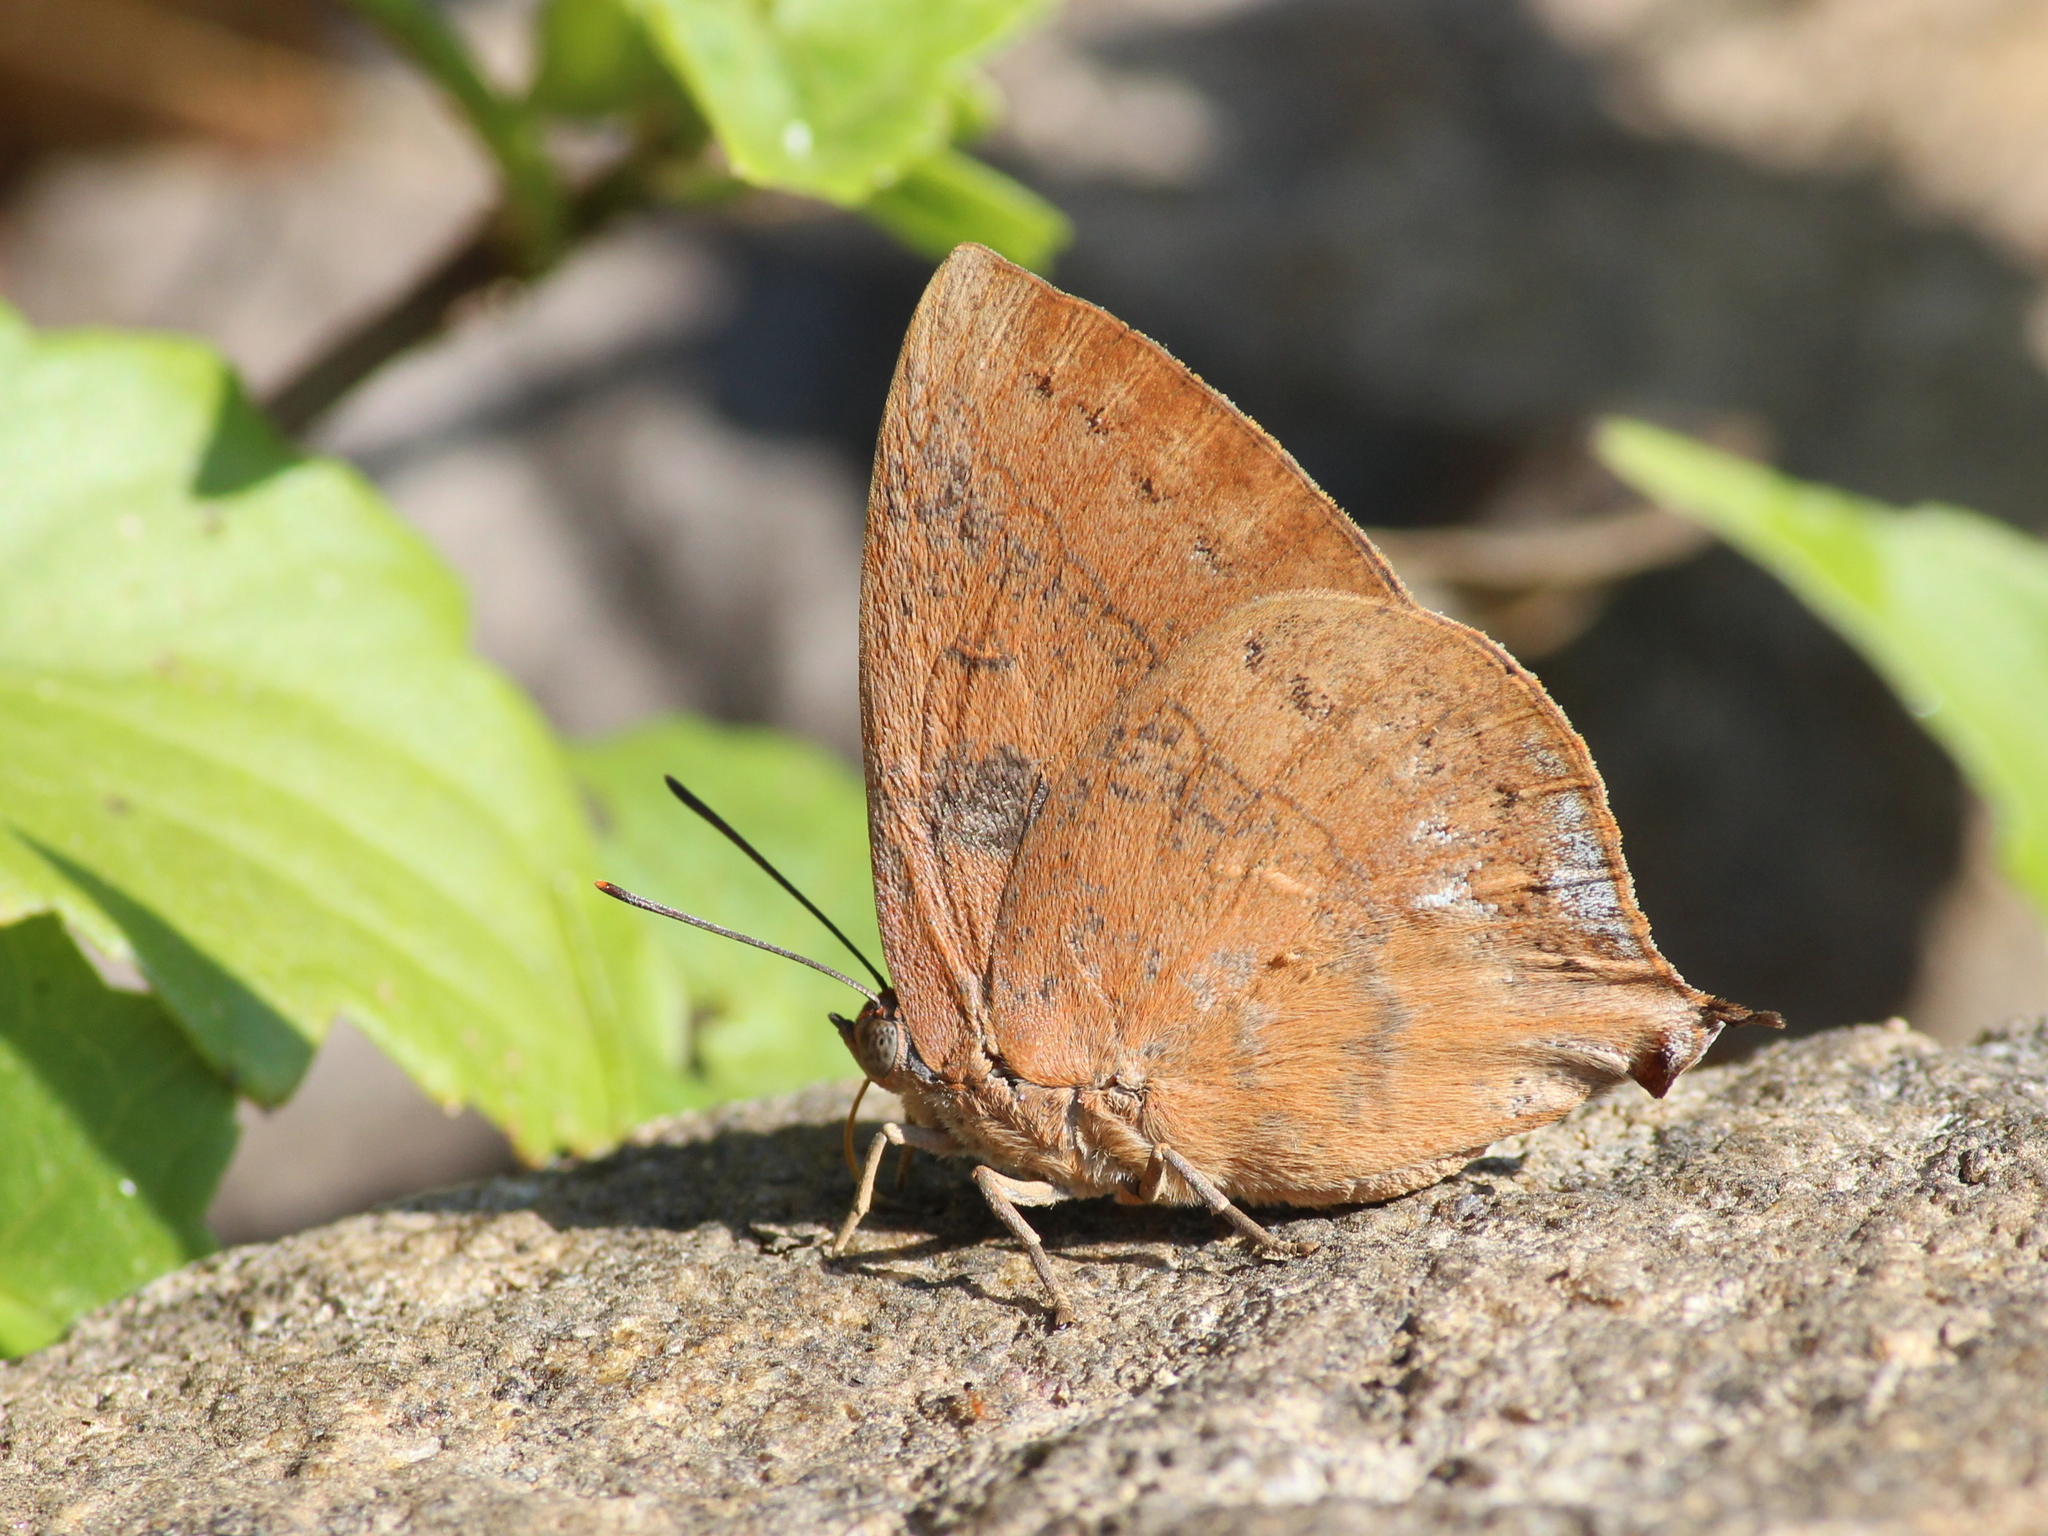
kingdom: Animalia
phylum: Arthropoda
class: Insecta
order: Lepidoptera
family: Lycaenidae
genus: Amblypodia
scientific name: Amblypodia anita
